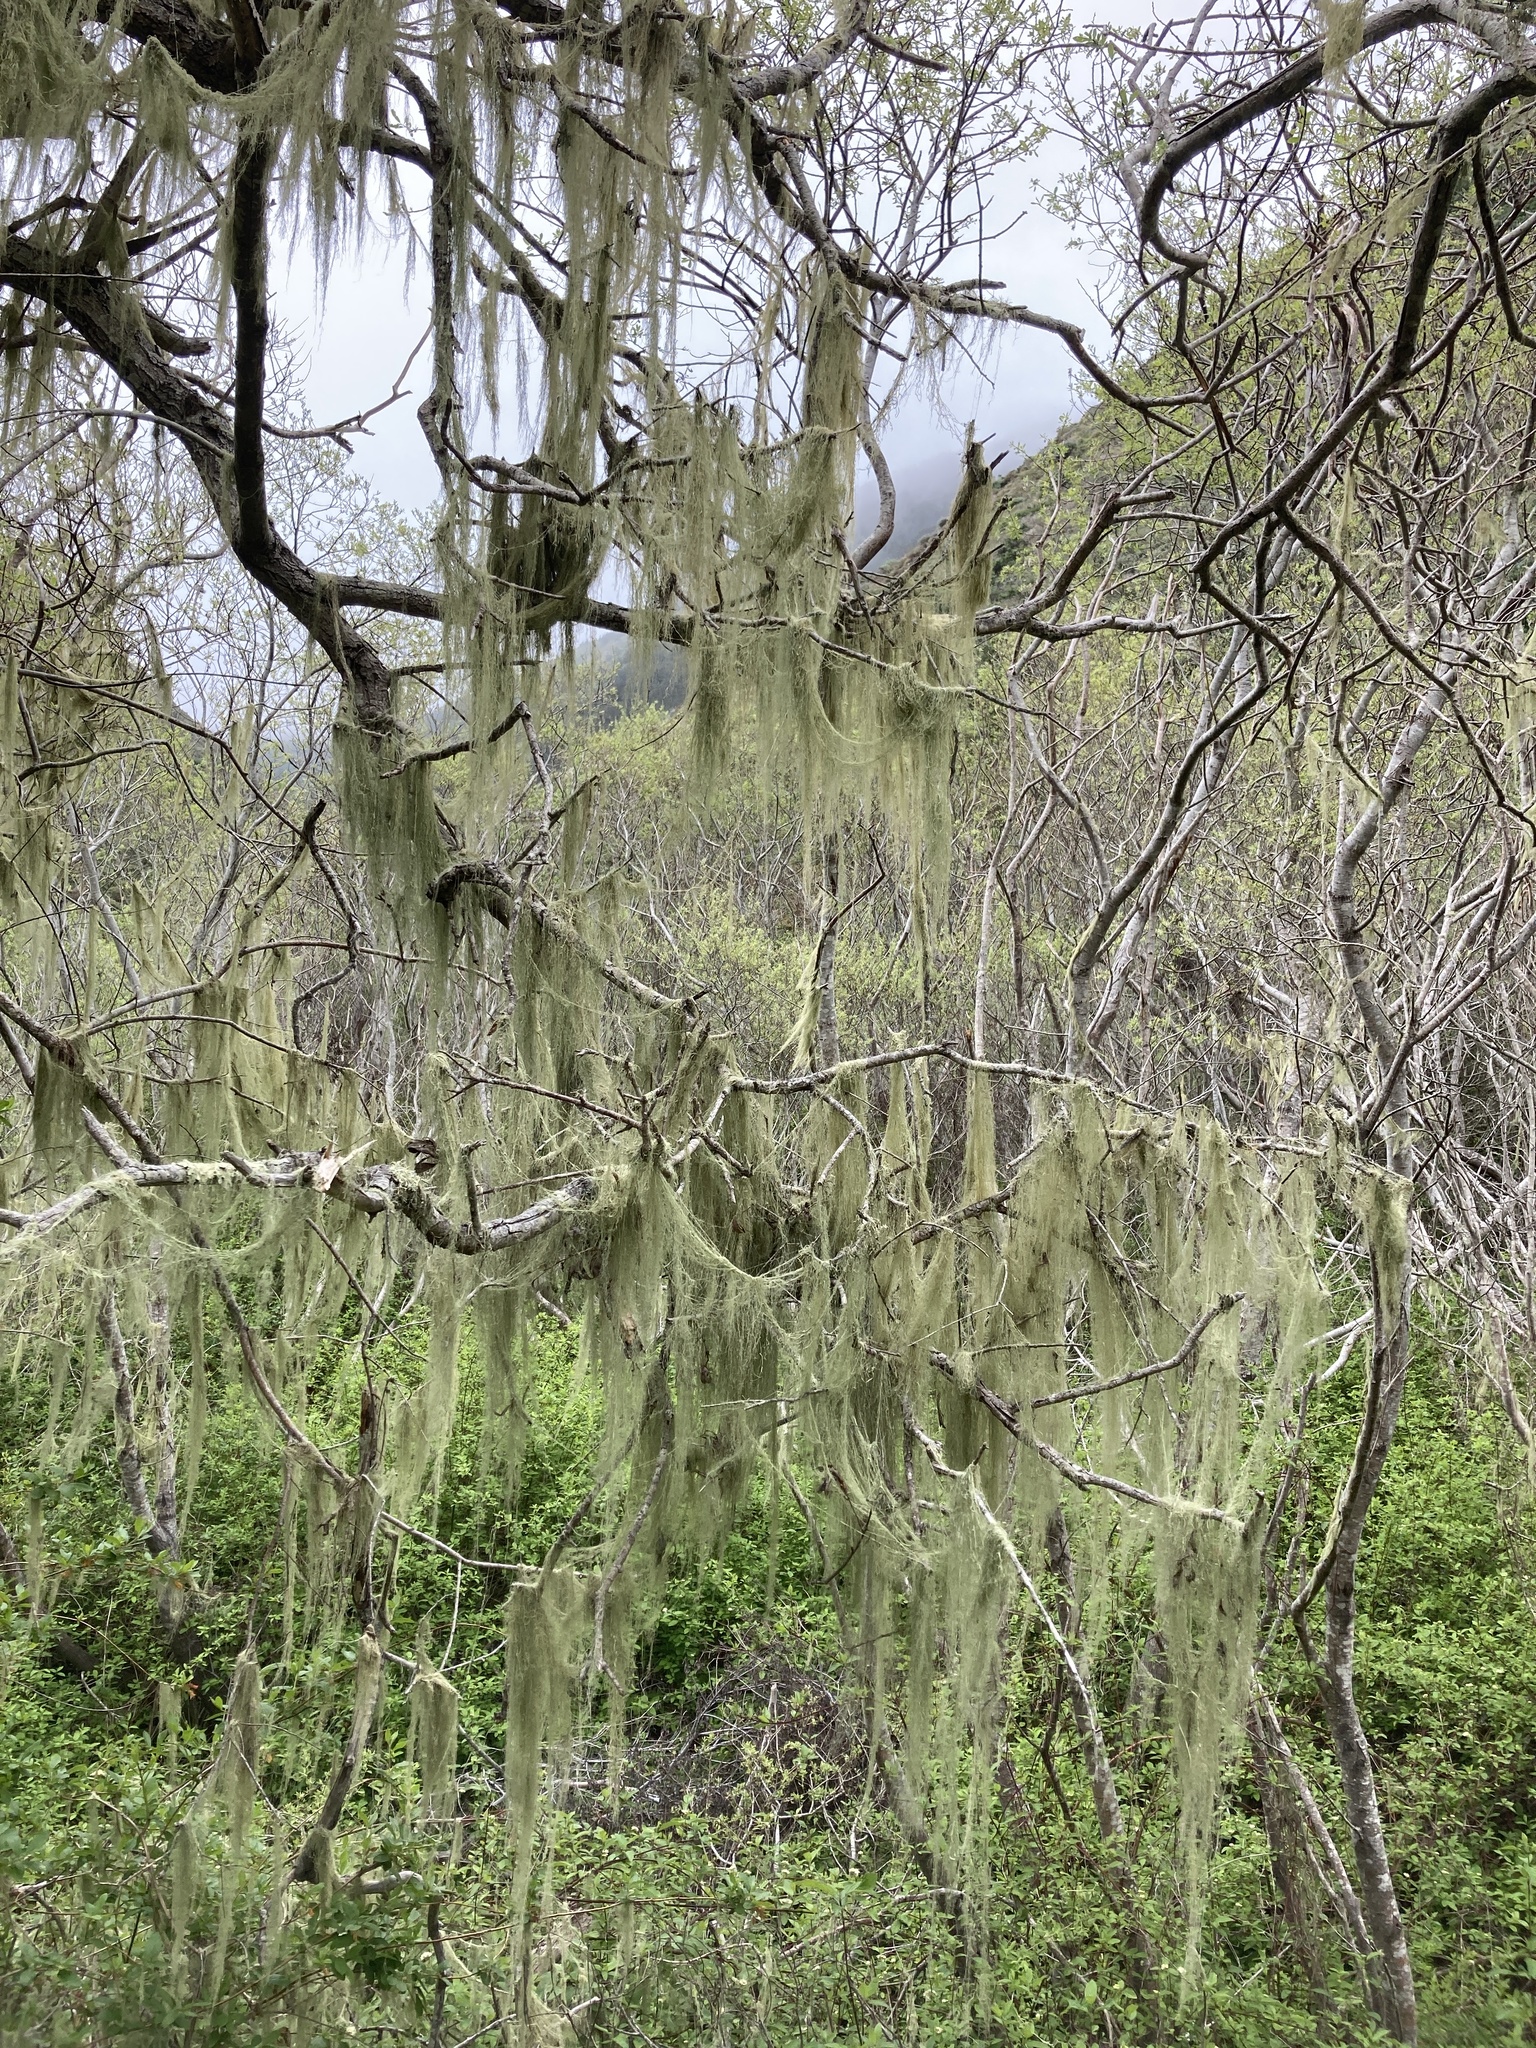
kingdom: Fungi
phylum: Ascomycota
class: Lecanoromycetes
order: Lecanorales
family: Ramalinaceae
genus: Ramalina
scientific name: Ramalina menziesii
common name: Lace lichen
